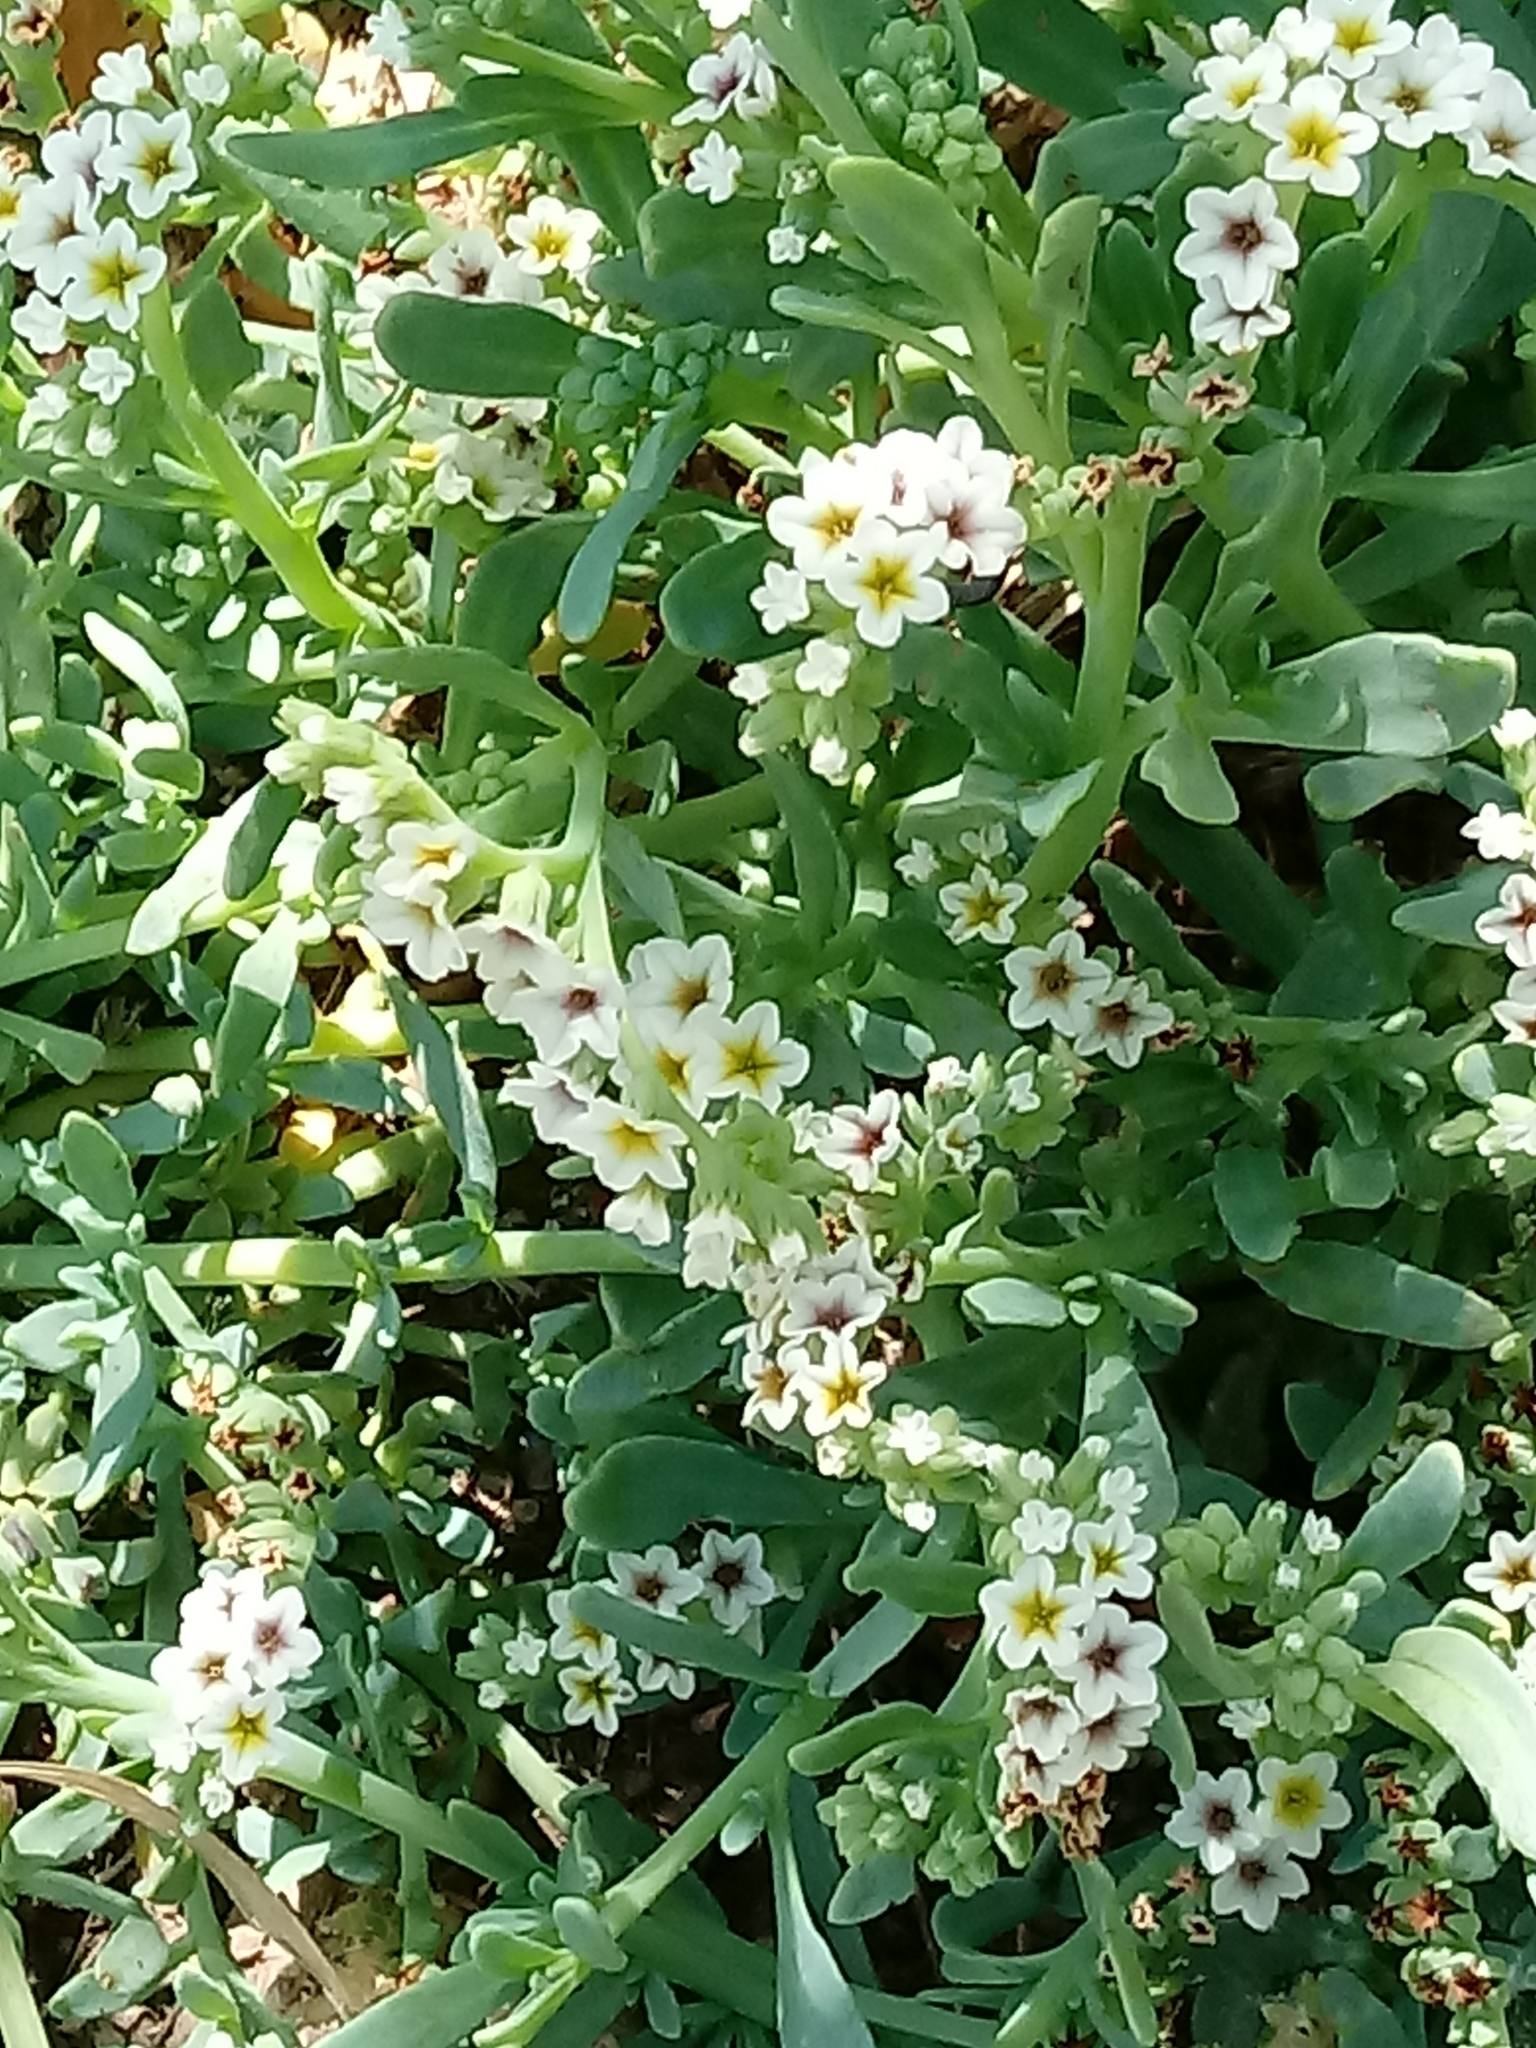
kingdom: Plantae
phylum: Tracheophyta
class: Magnoliopsida
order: Boraginales
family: Heliotropiaceae
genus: Heliotropium
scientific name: Heliotropium curassavicum
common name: Seaside heliotrope
